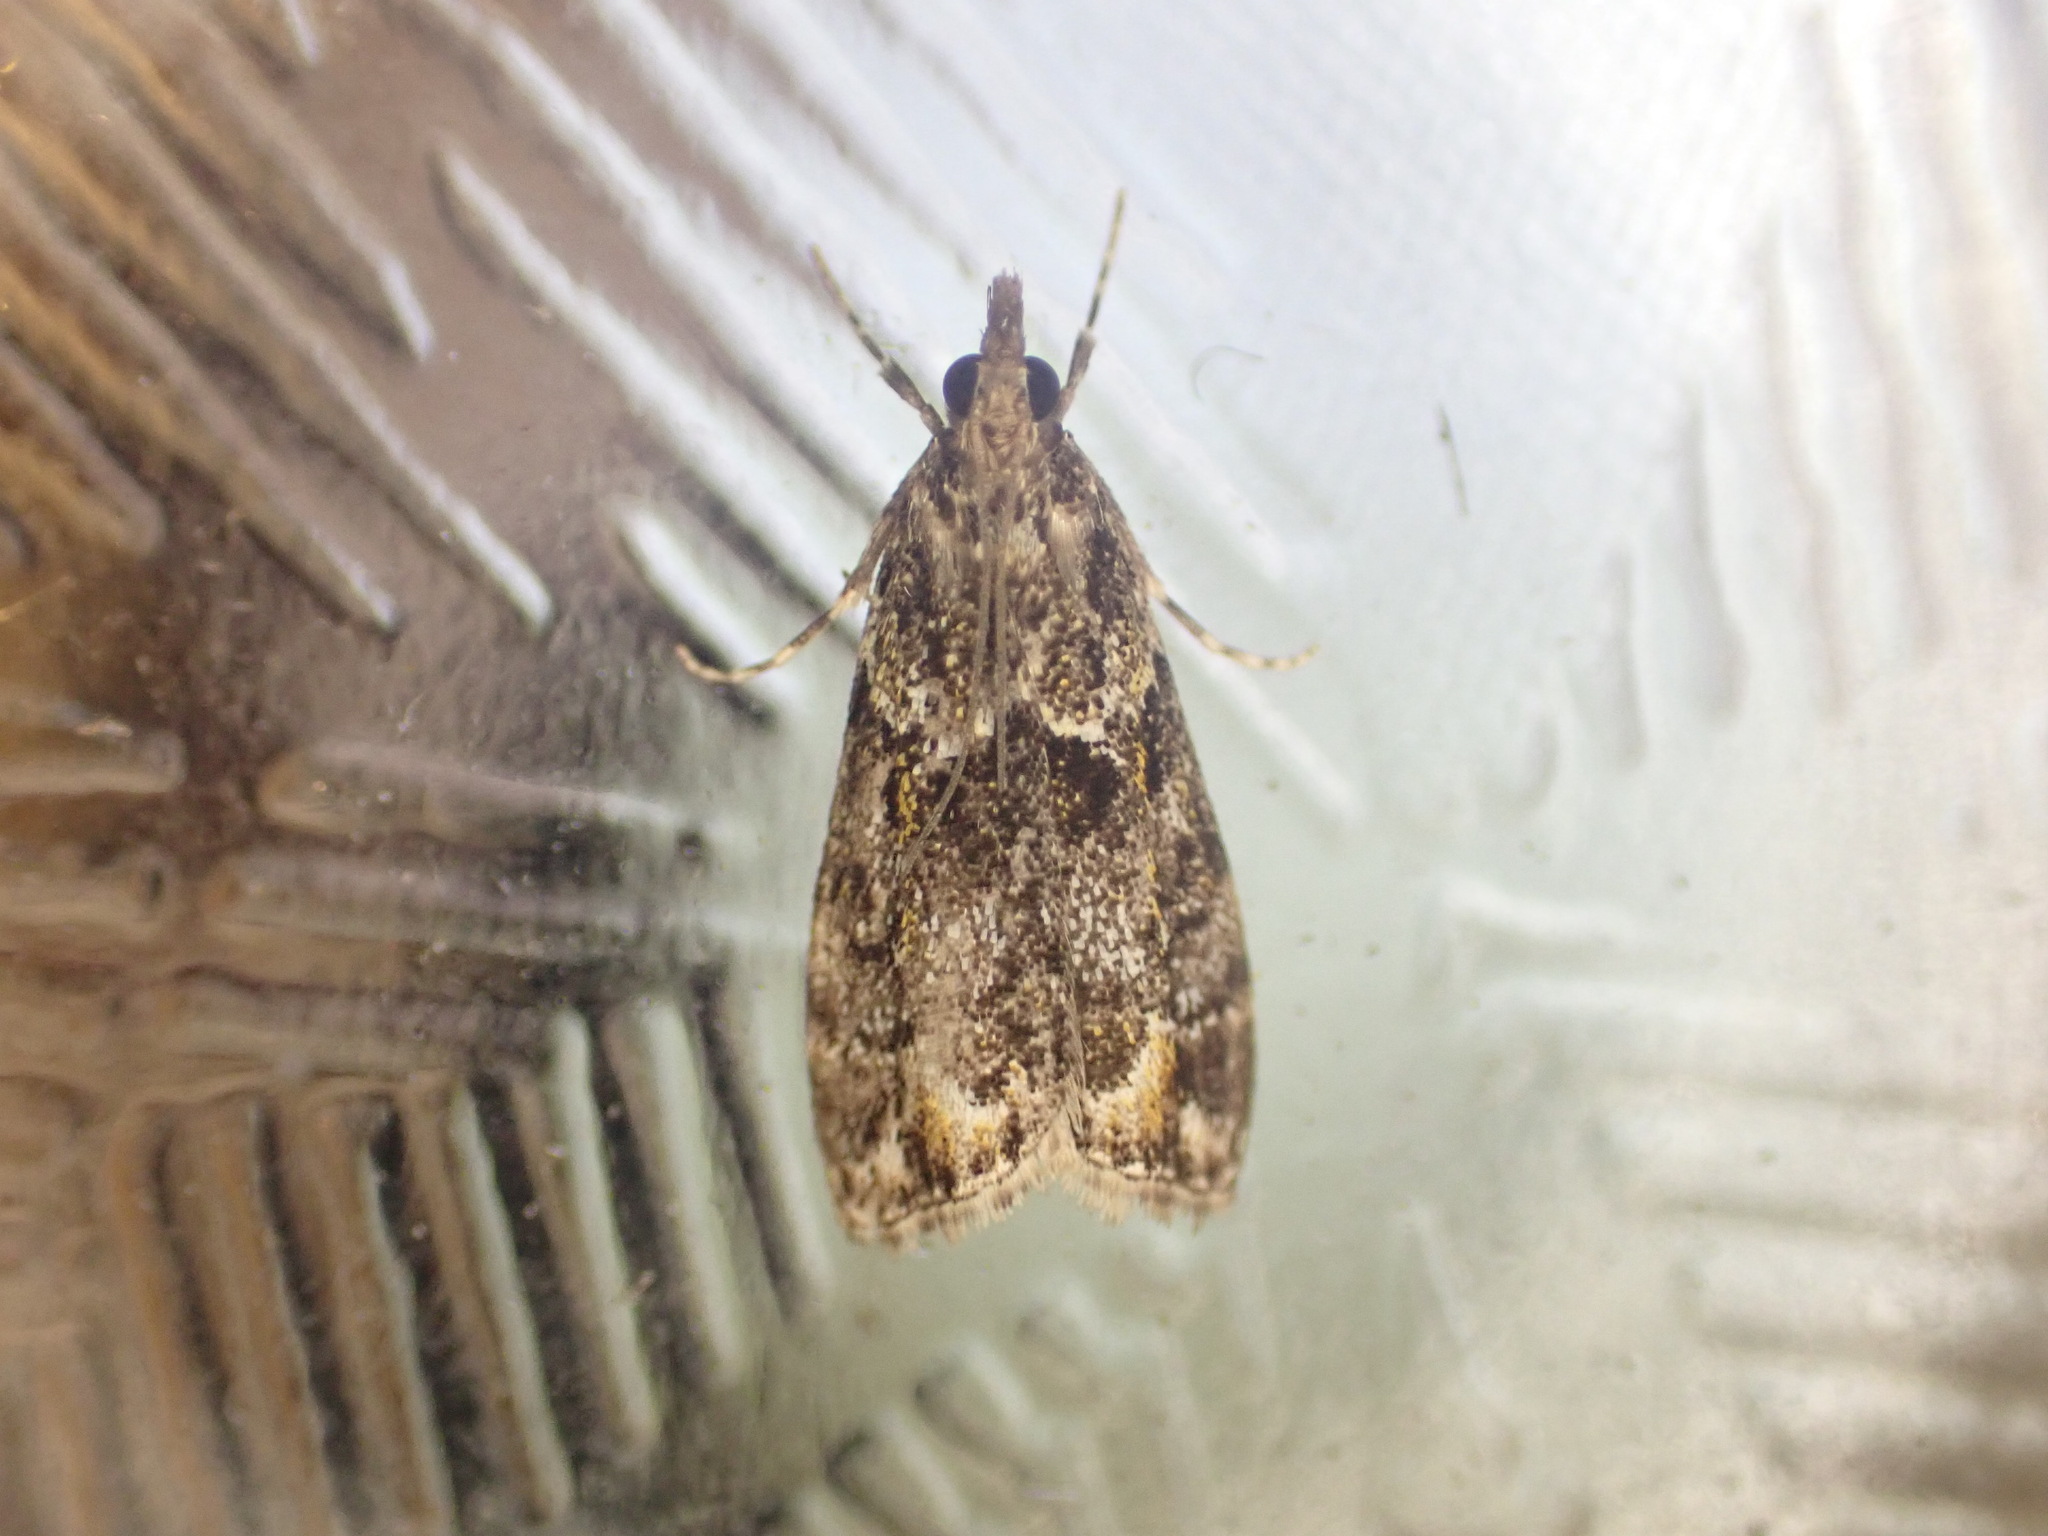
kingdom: Animalia
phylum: Arthropoda
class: Insecta
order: Lepidoptera
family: Crambidae
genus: Eudonia
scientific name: Eudonia minualis
